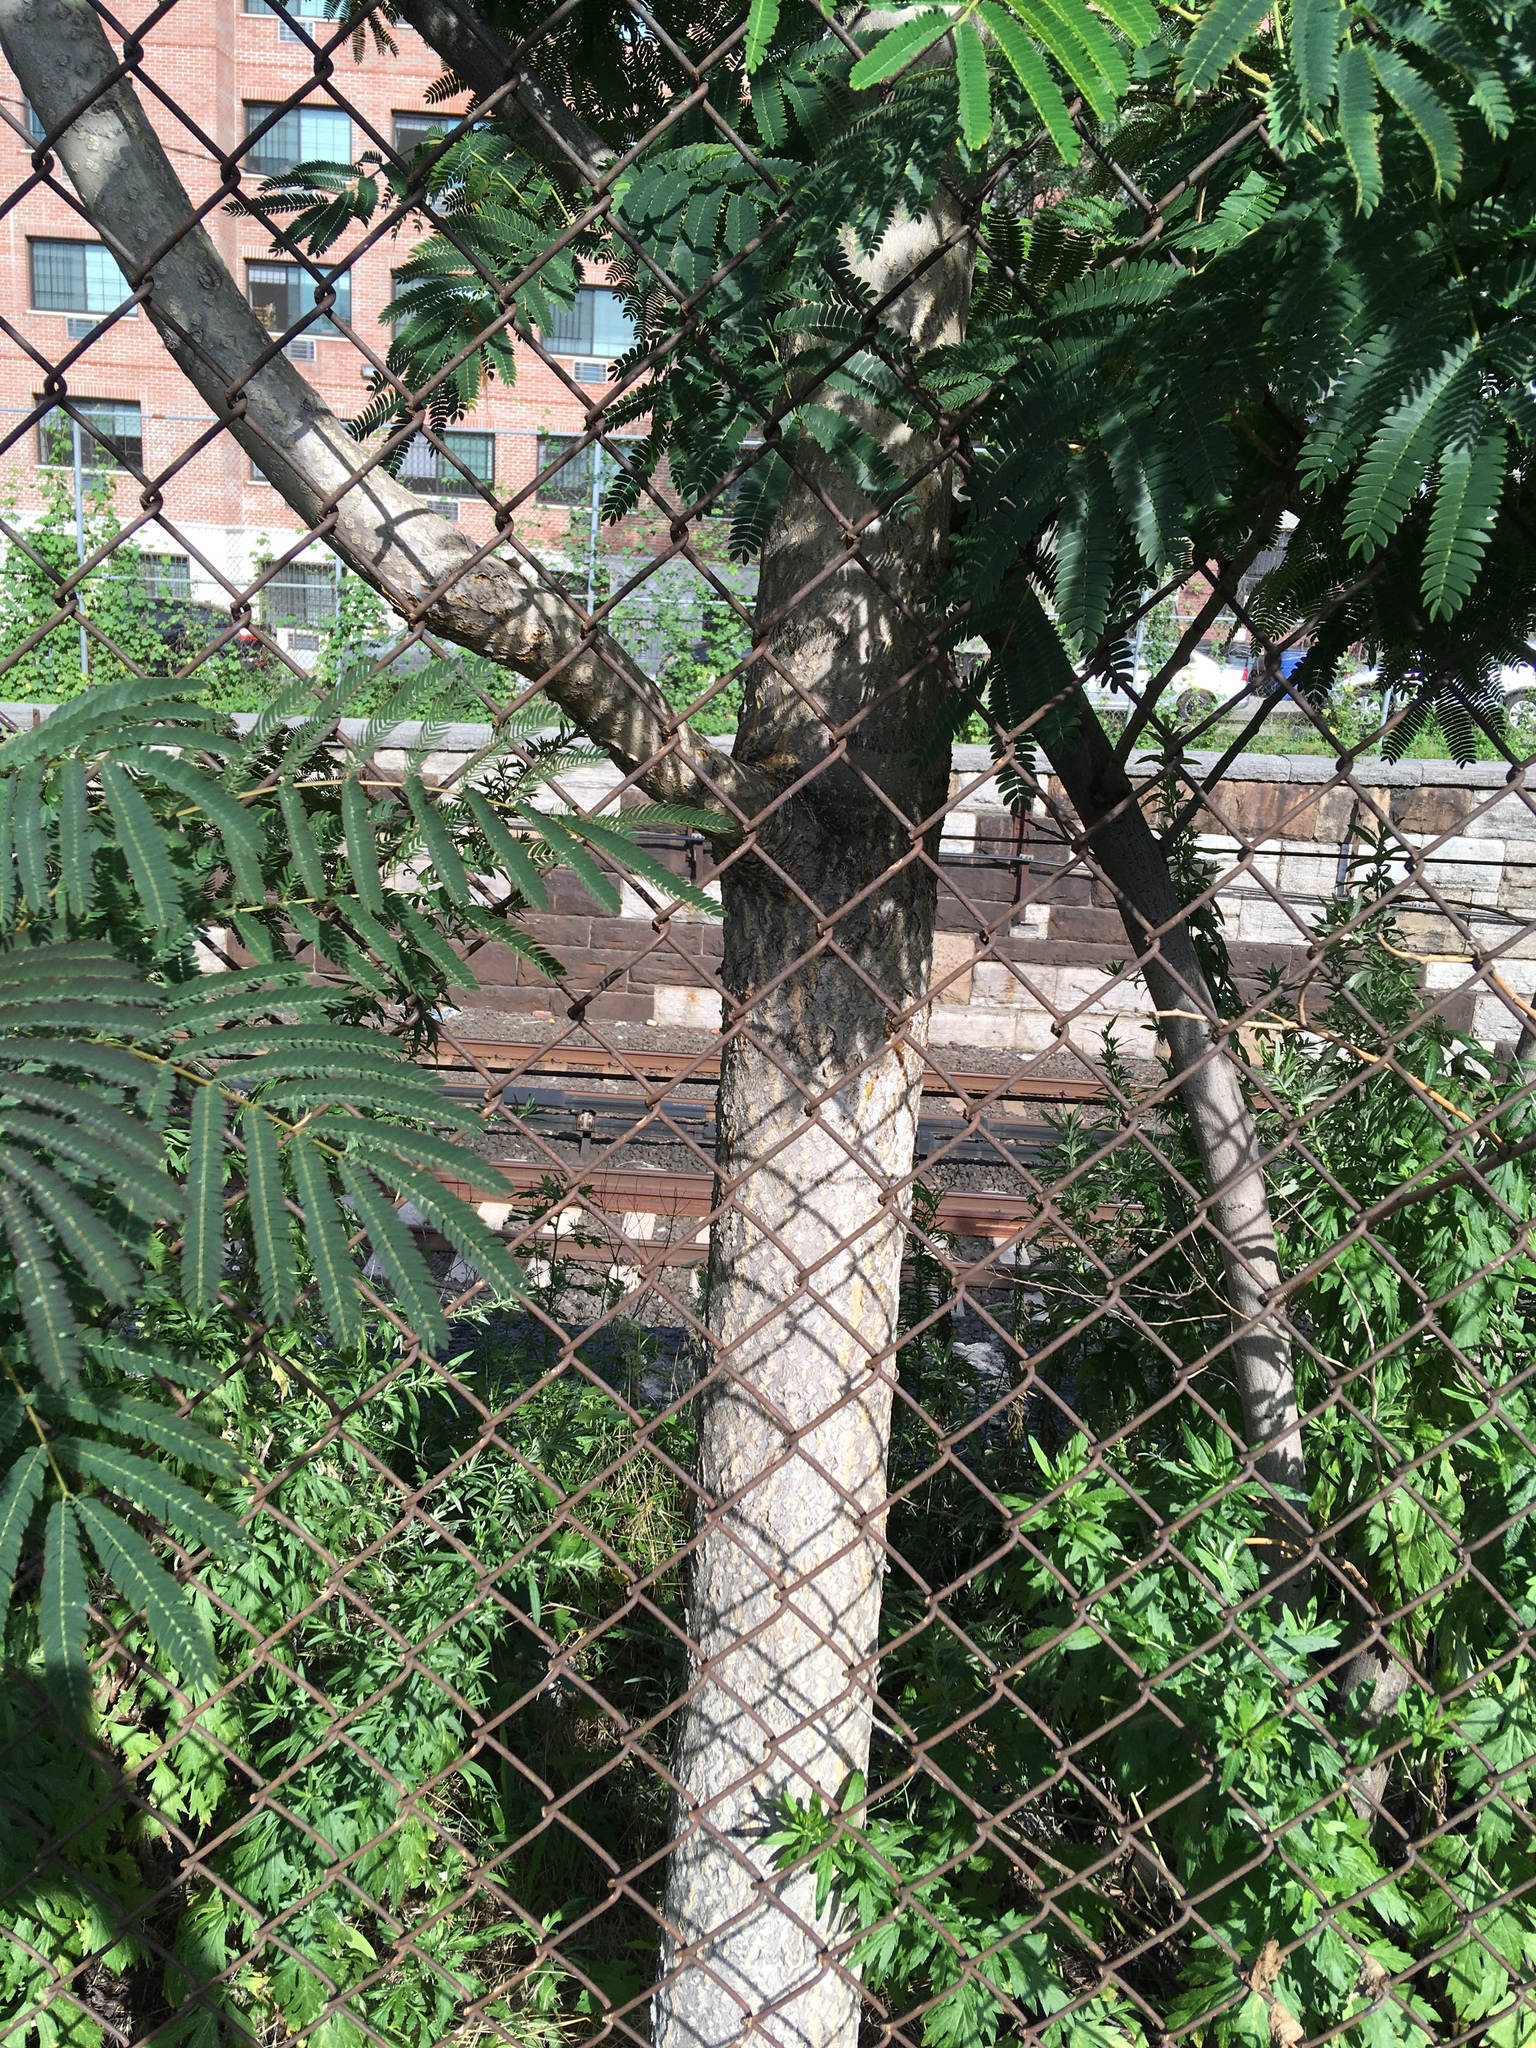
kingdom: Plantae
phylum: Tracheophyta
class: Magnoliopsida
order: Sapindales
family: Simaroubaceae
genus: Ailanthus
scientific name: Ailanthus altissima
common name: Tree-of-heaven
